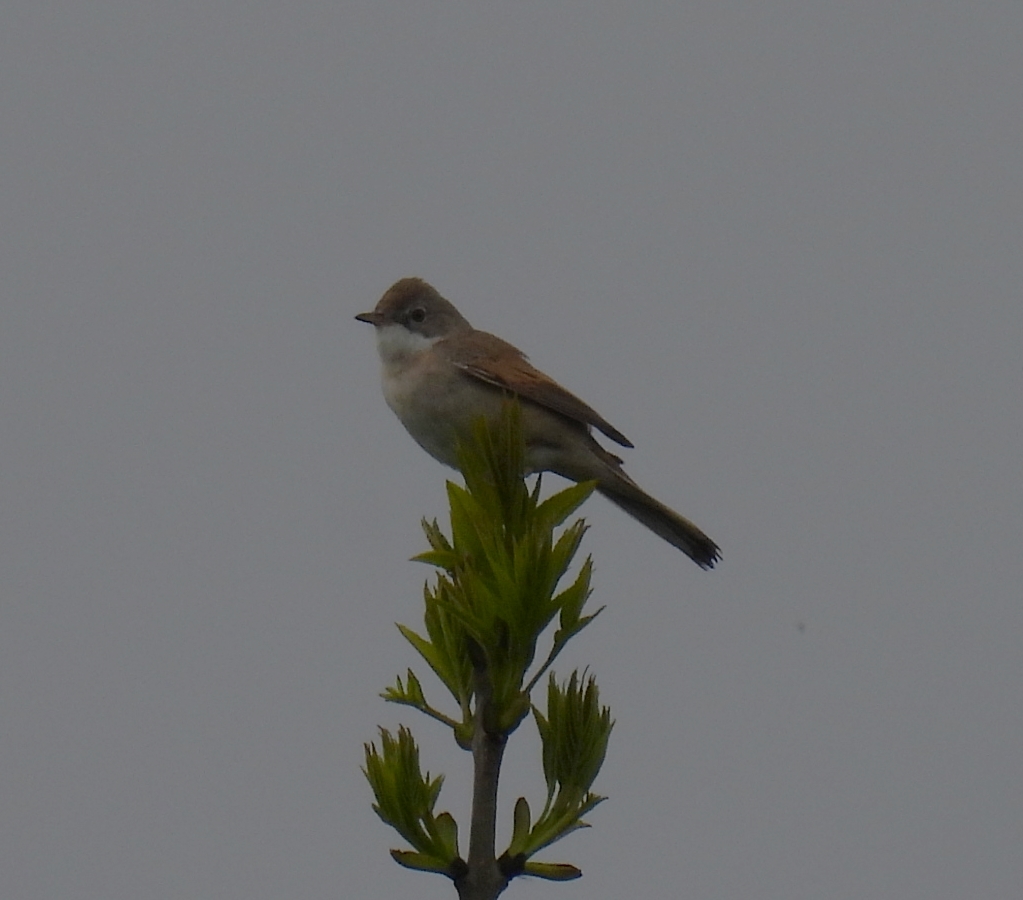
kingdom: Animalia
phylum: Chordata
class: Aves
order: Passeriformes
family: Sylviidae
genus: Sylvia
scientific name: Sylvia communis
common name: Common whitethroat
